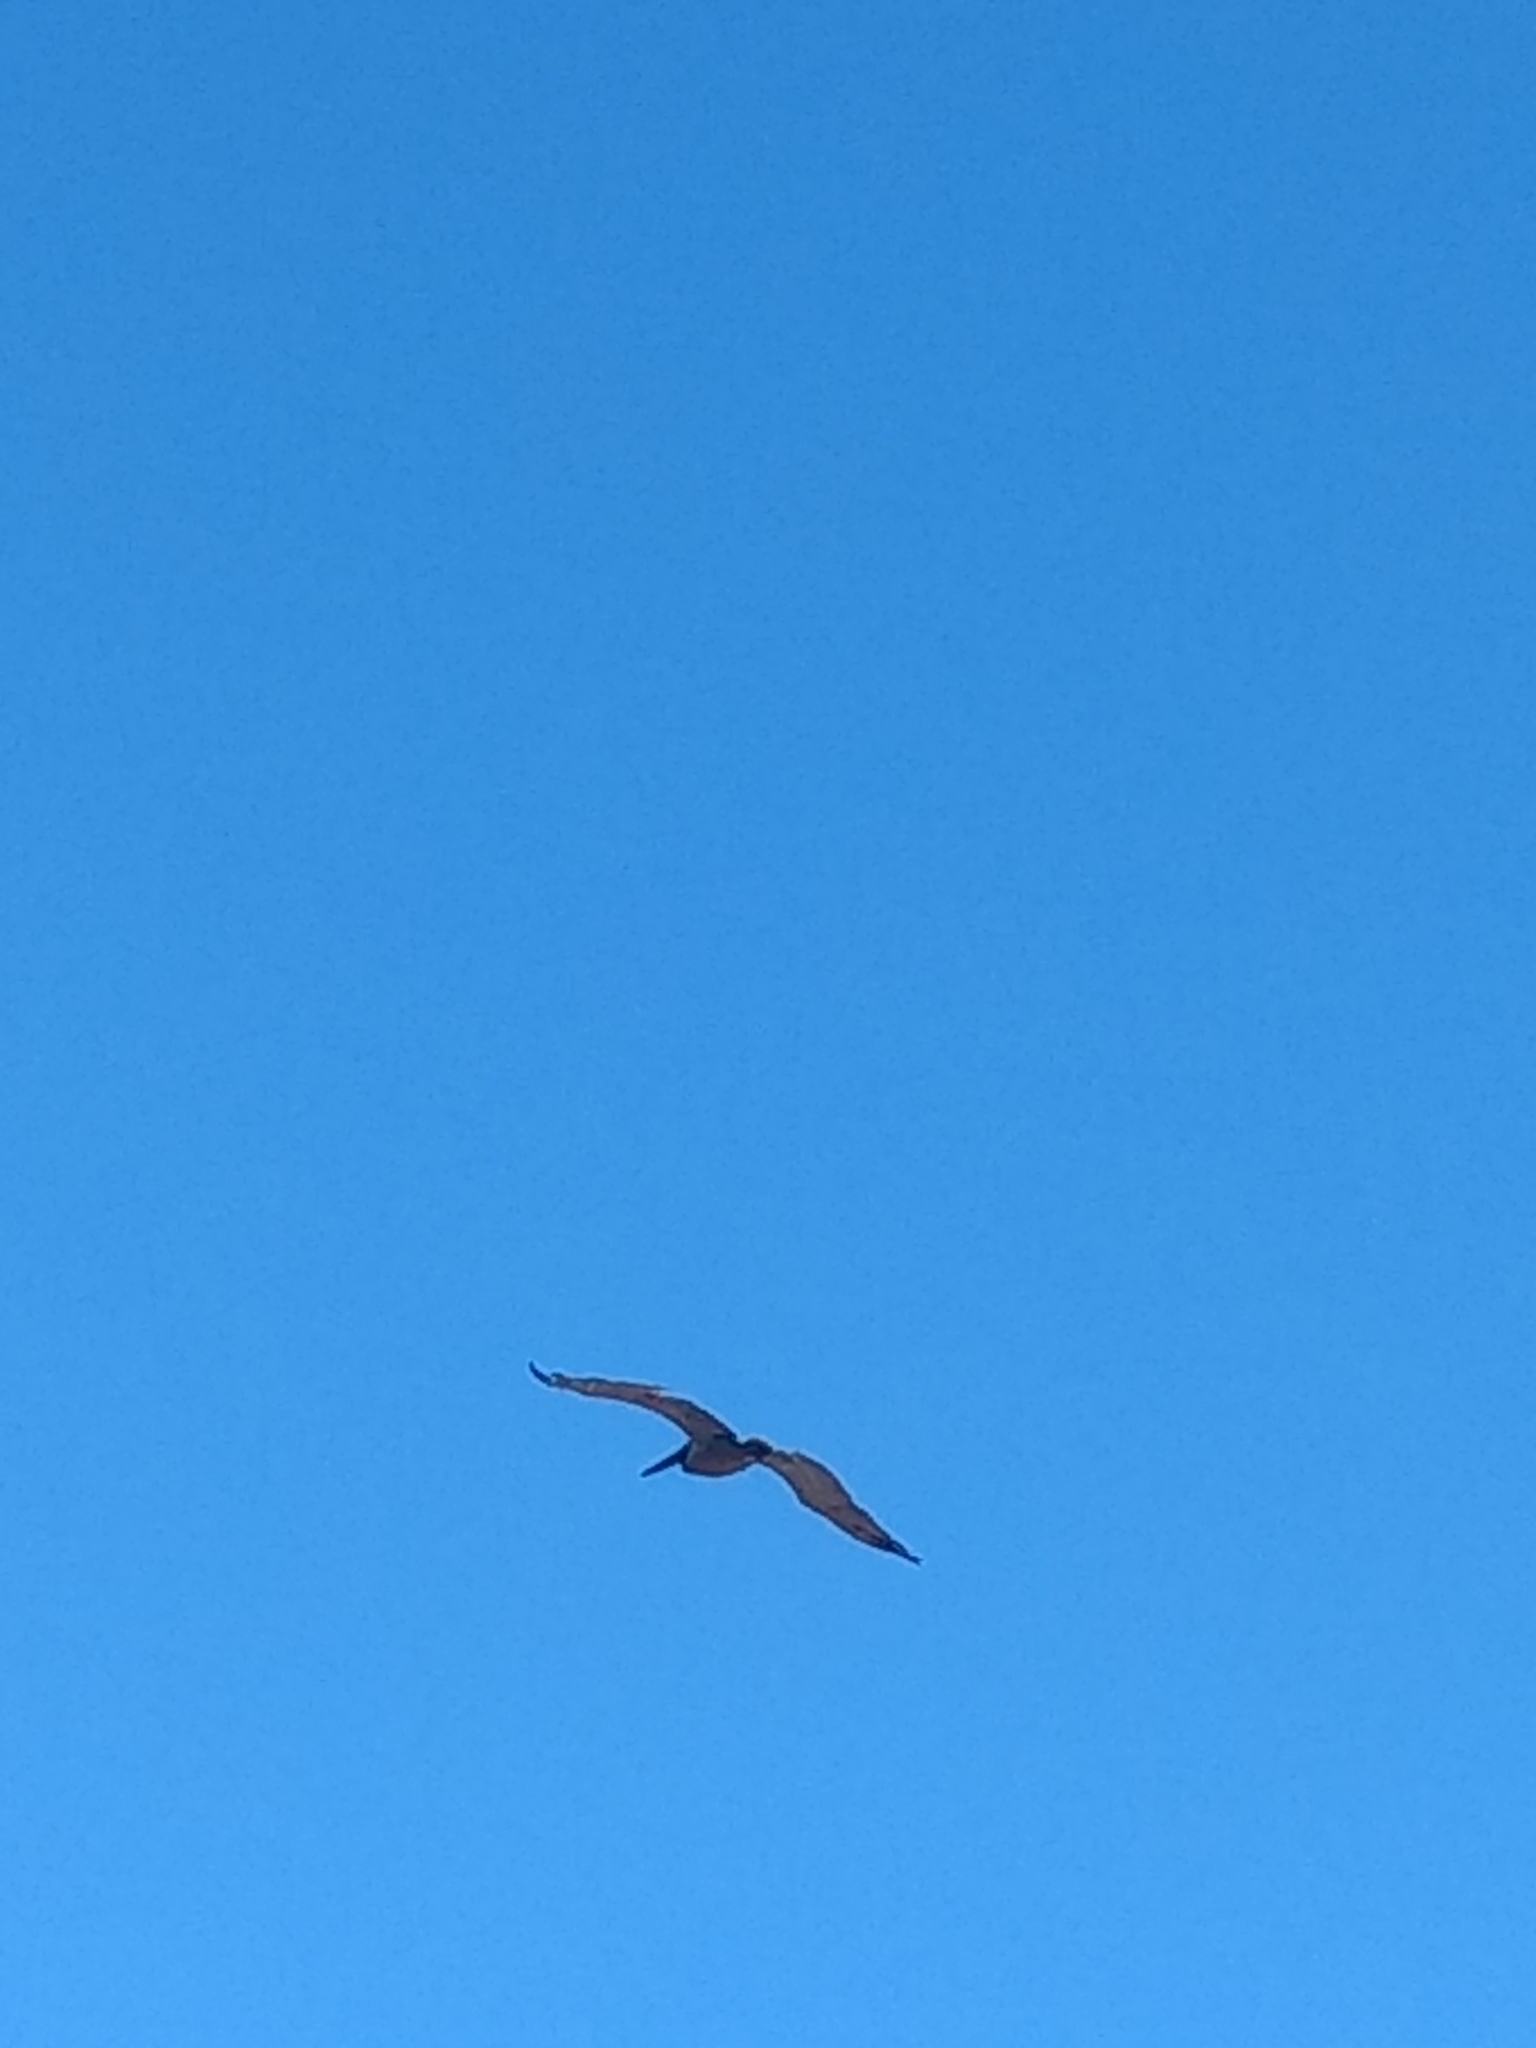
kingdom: Animalia
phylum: Chordata
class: Aves
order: Pelecaniformes
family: Pelecanidae
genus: Pelecanus
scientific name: Pelecanus occidentalis
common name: Brown pelican
